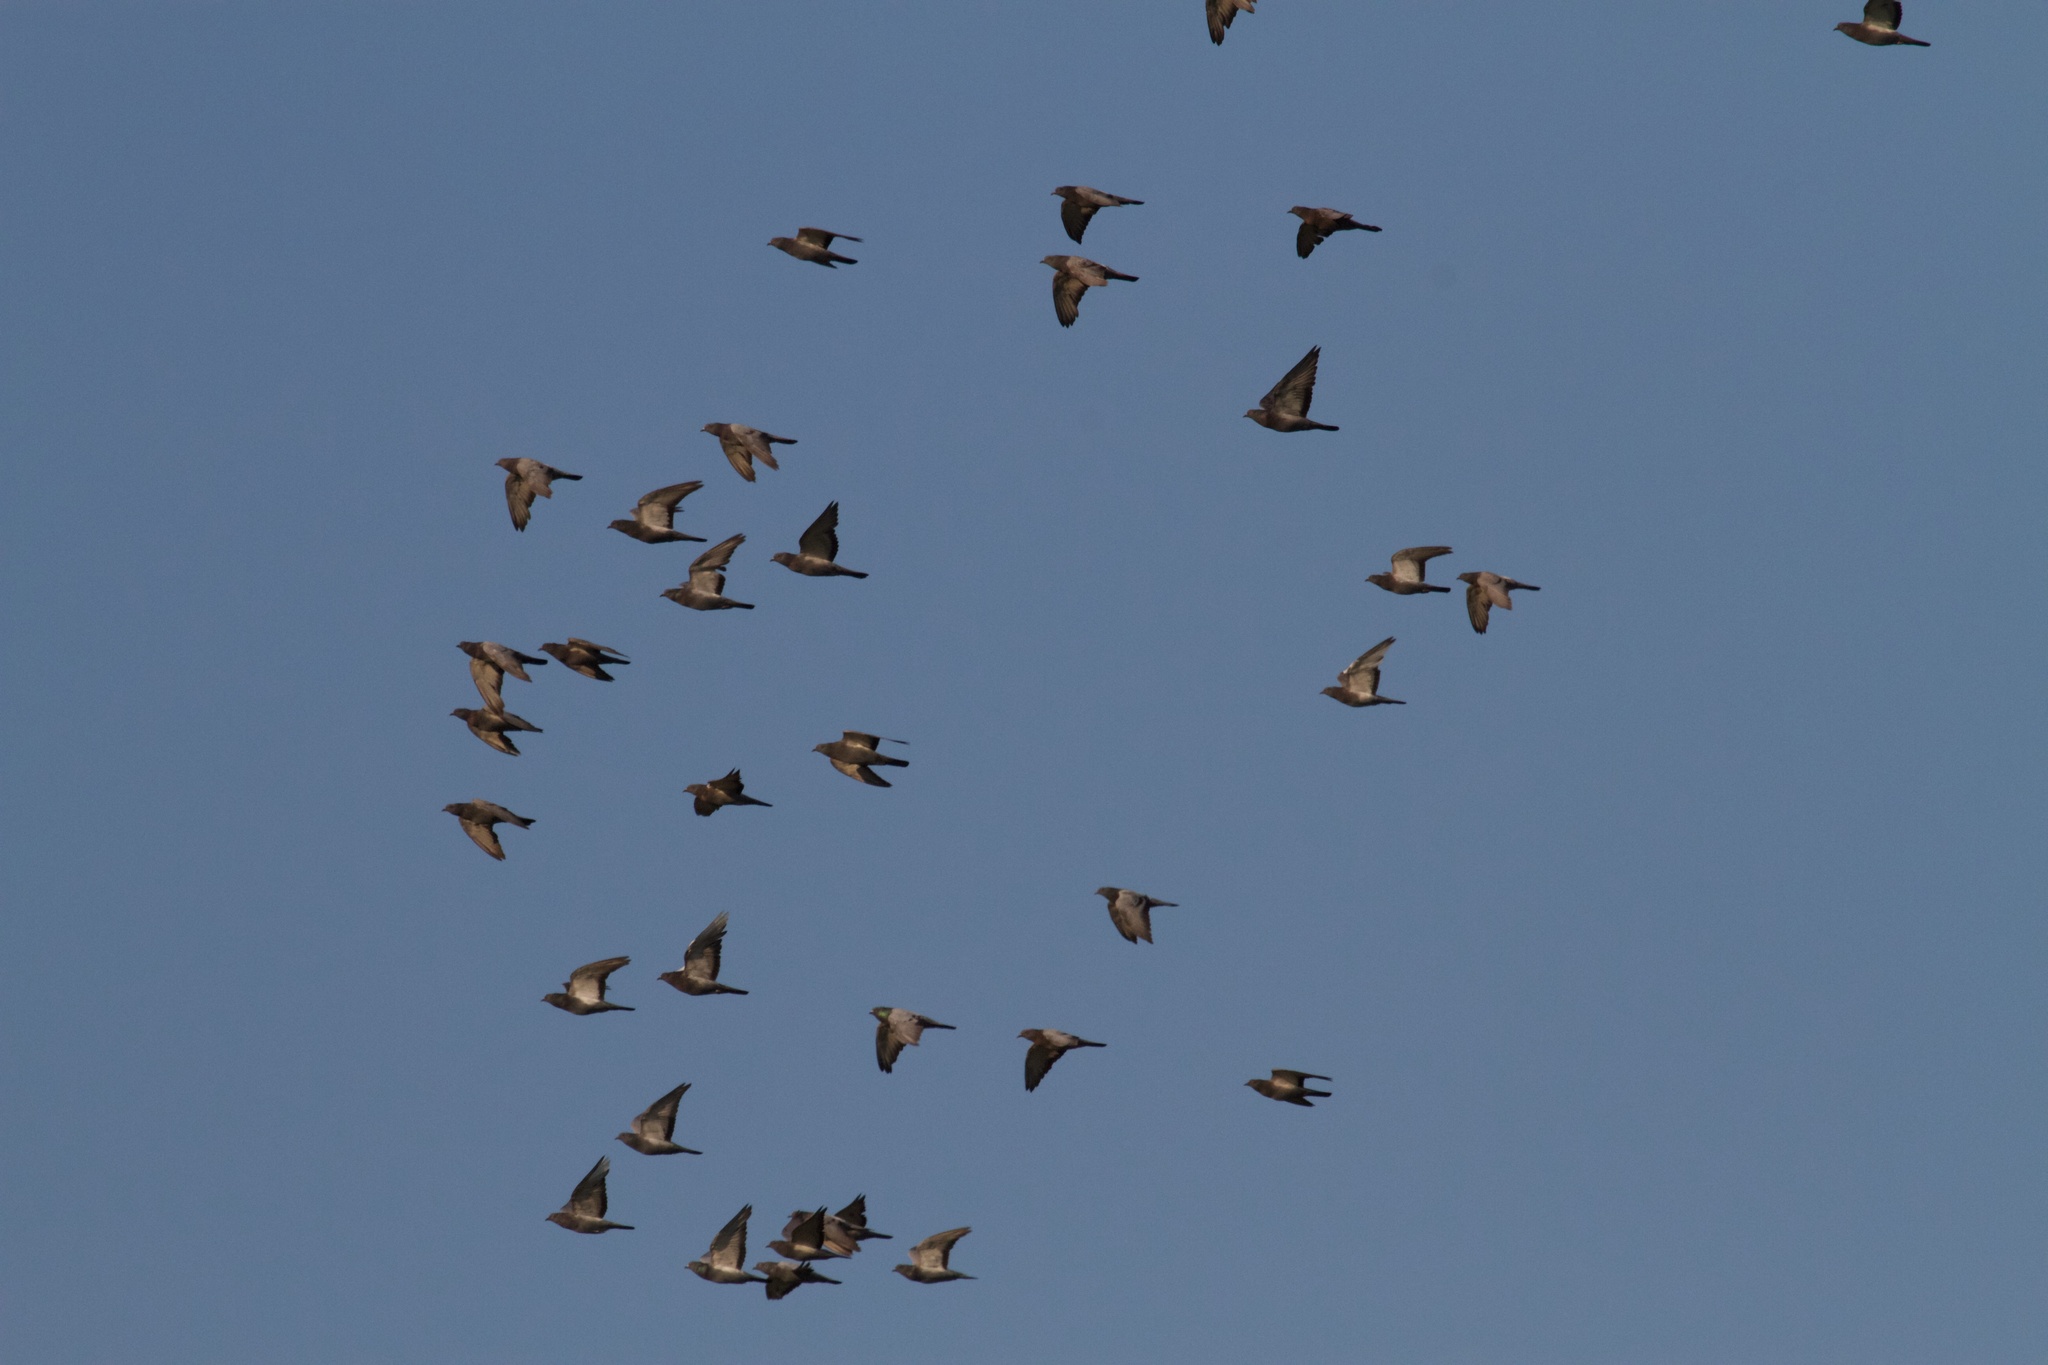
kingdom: Animalia
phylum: Chordata
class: Aves
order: Columbiformes
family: Columbidae
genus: Columba
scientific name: Columba livia
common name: Rock pigeon
